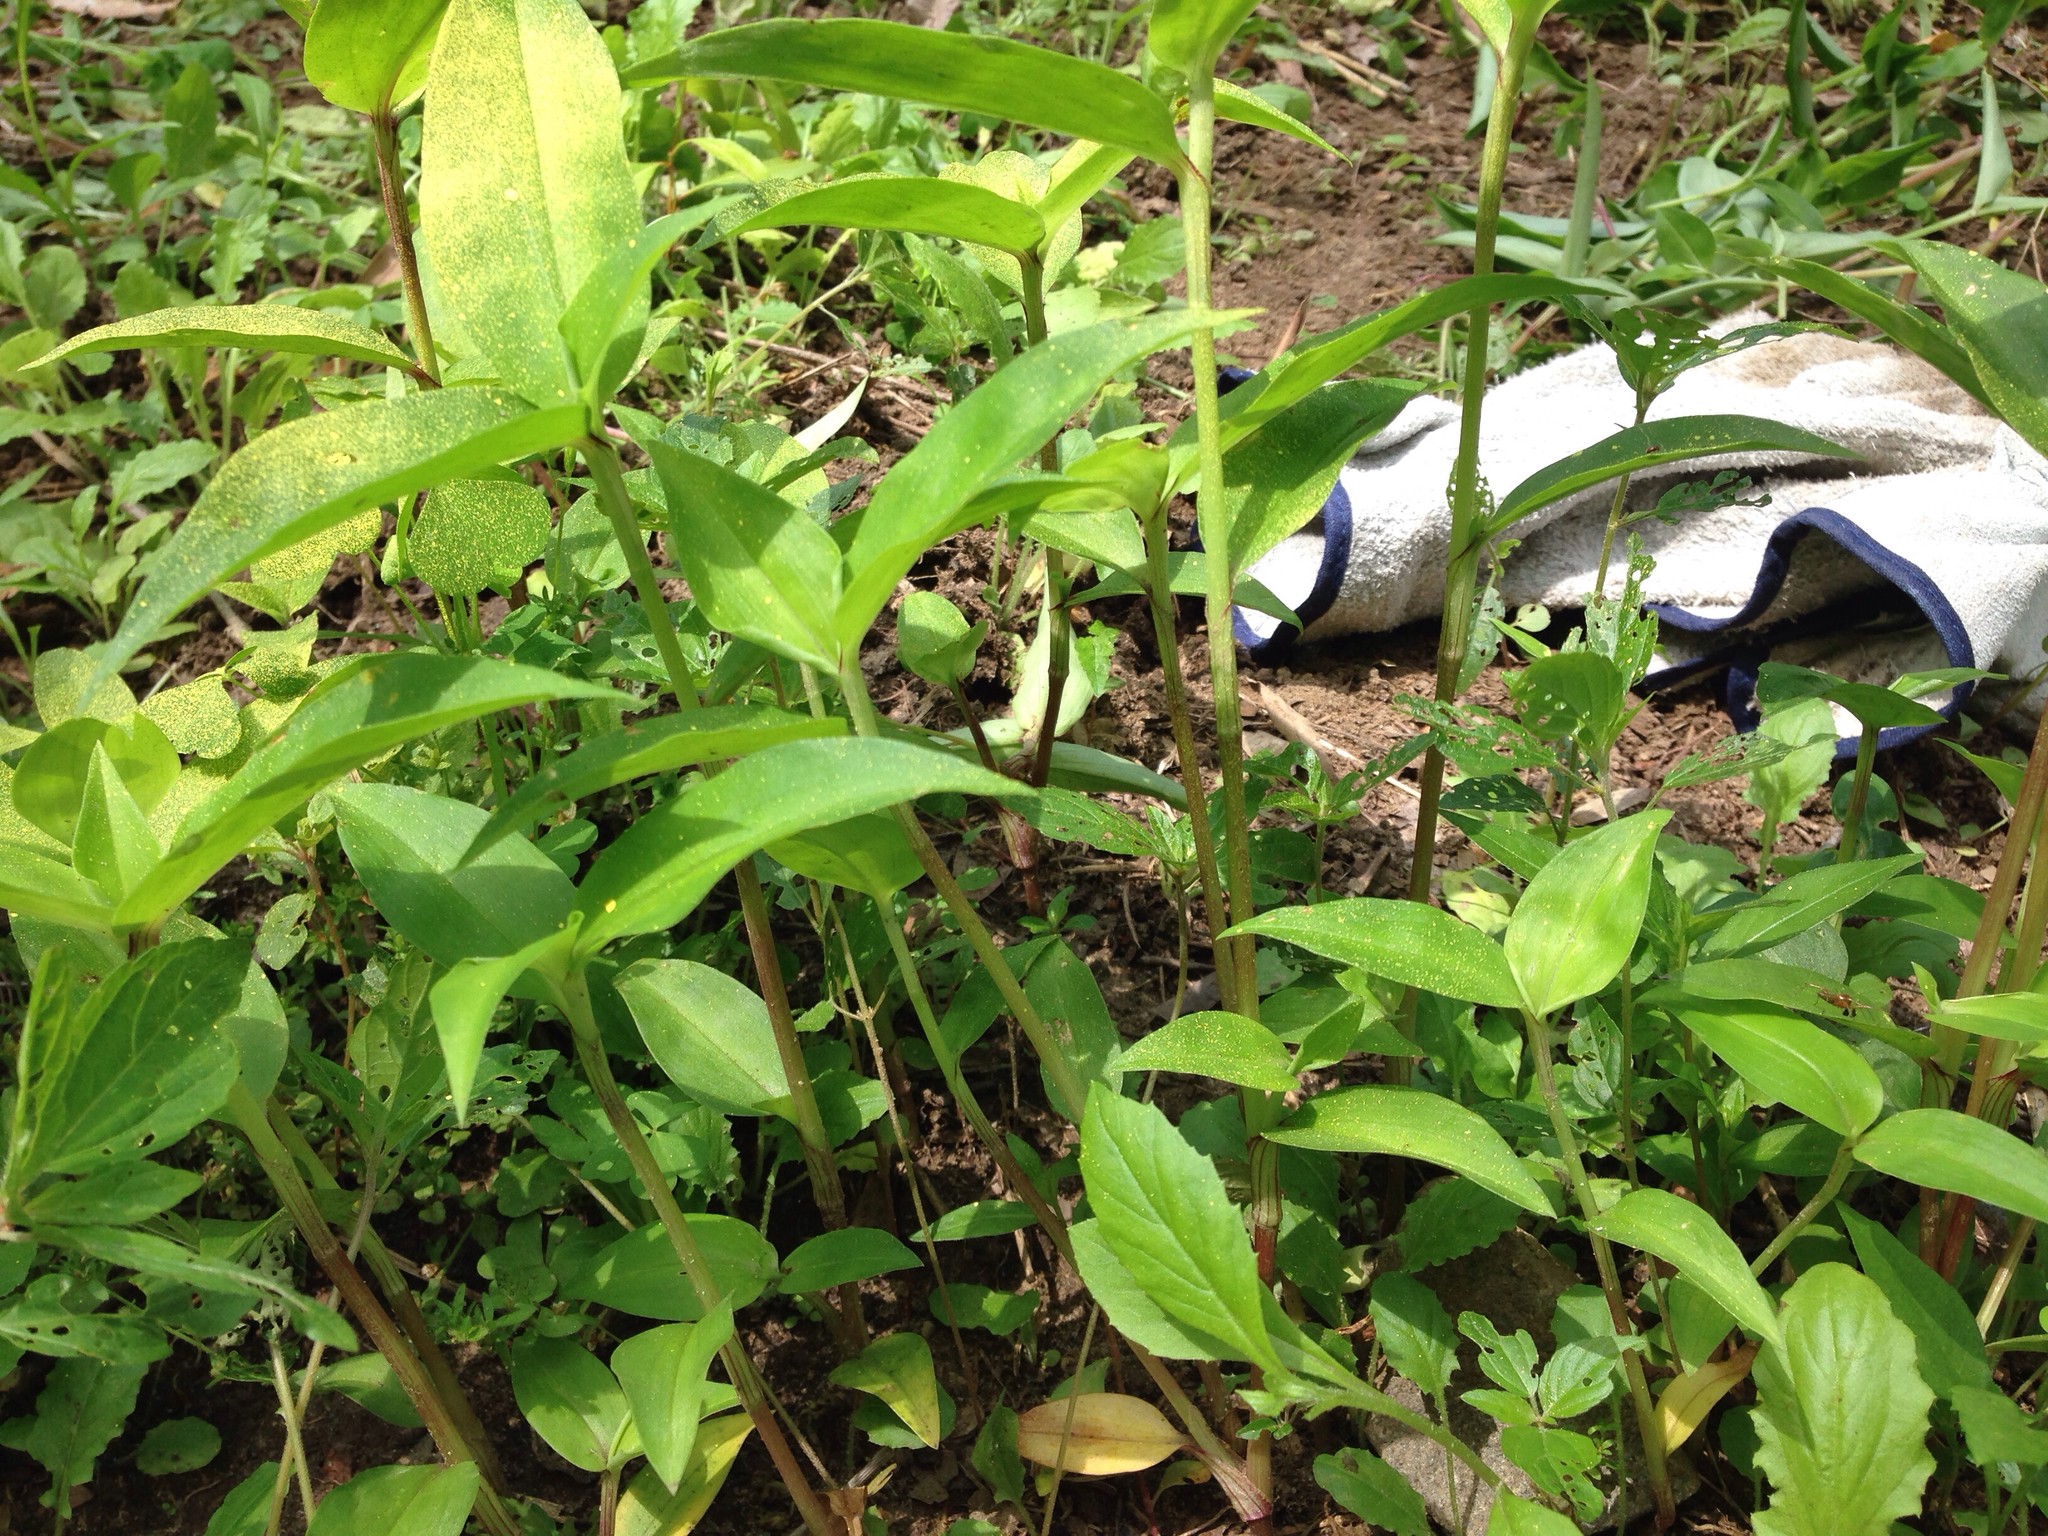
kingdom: Plantae
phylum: Tracheophyta
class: Liliopsida
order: Commelinales
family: Commelinaceae
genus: Commelina
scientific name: Commelina communis
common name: Asiatic dayflower
